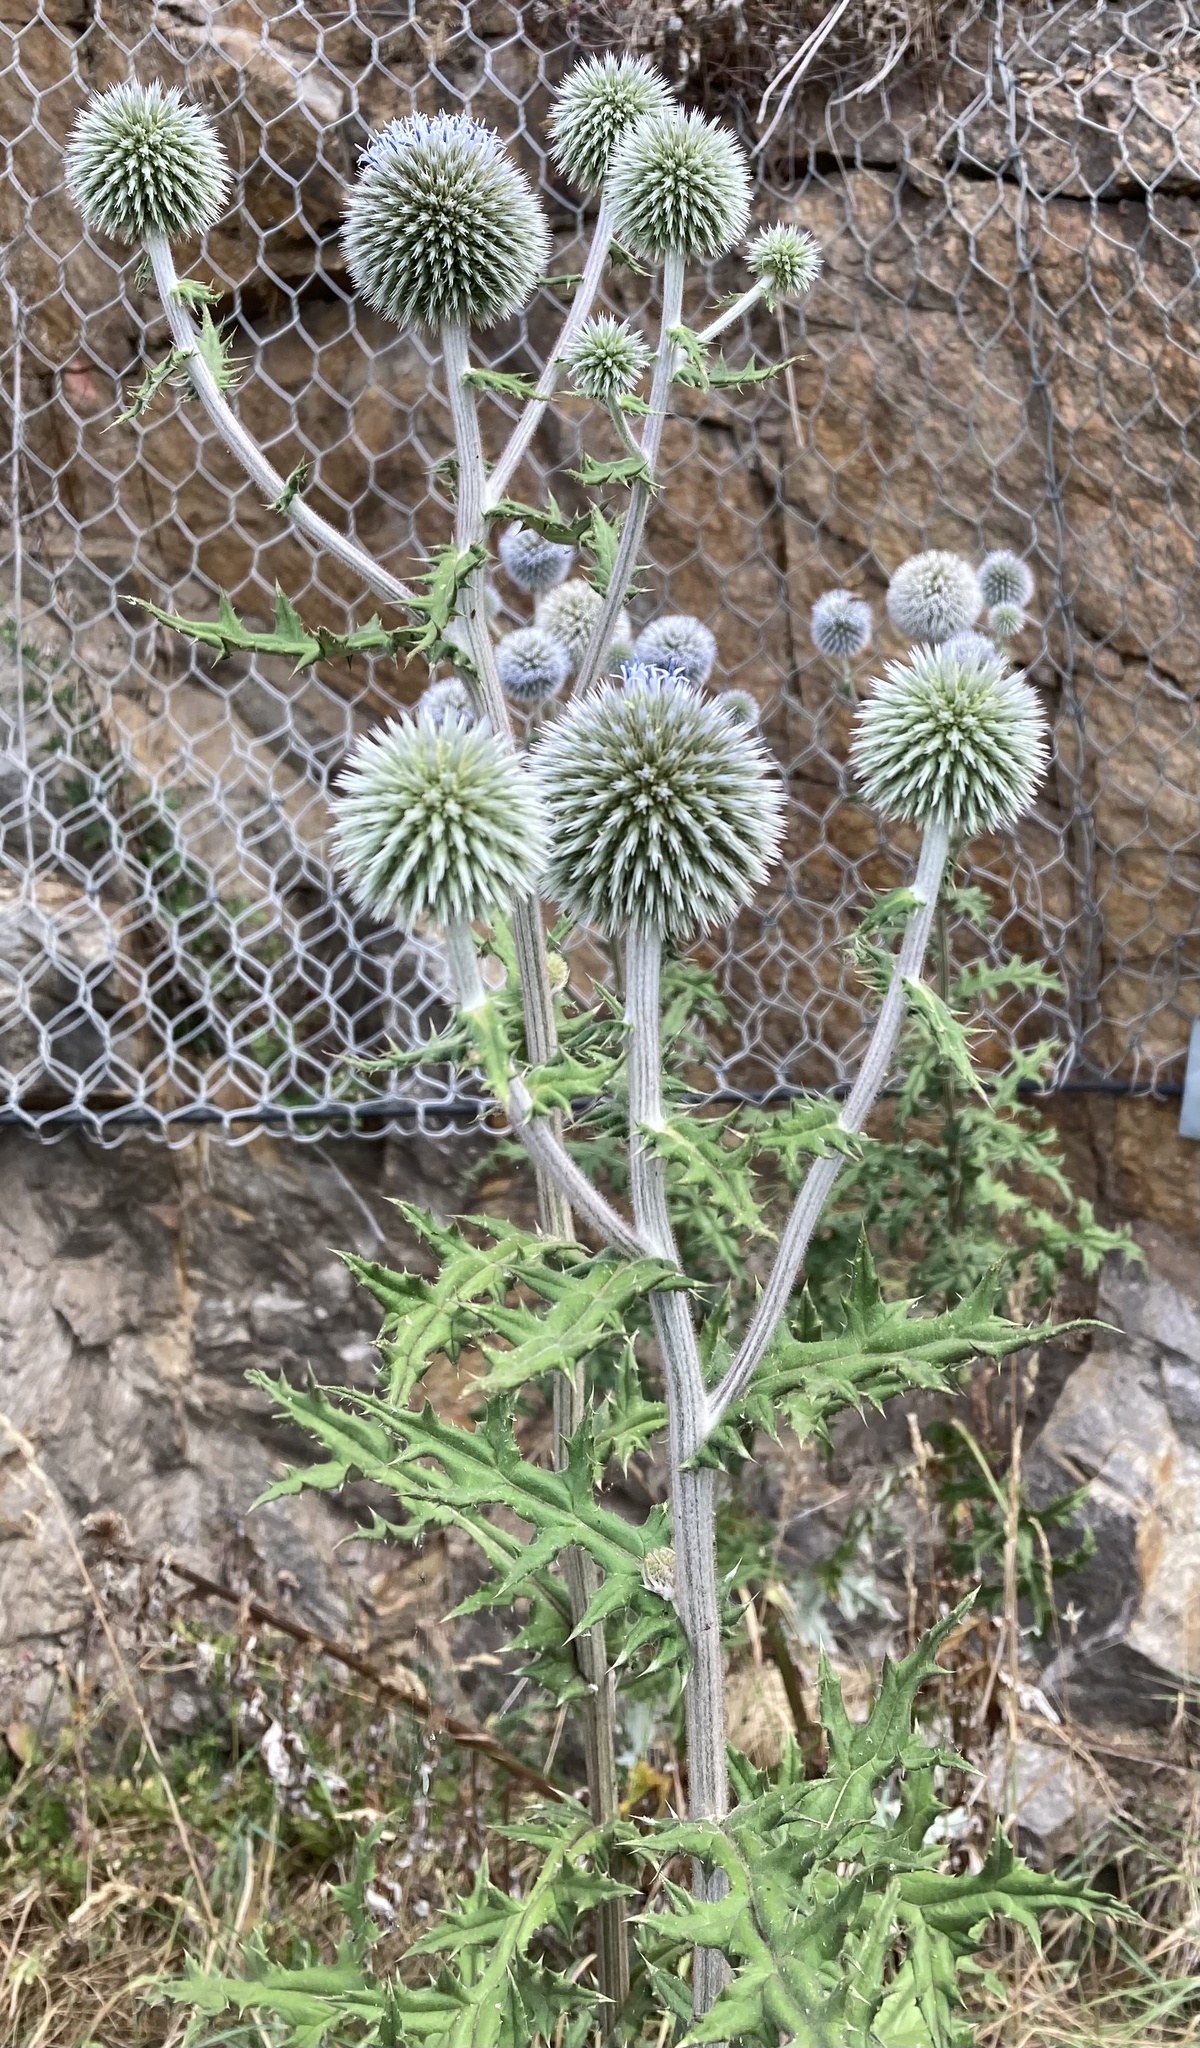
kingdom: Plantae
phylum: Tracheophyta
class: Magnoliopsida
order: Asterales
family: Asteraceae
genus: Echinops
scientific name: Echinops sphaerocephalus
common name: Glandular globe-thistle
